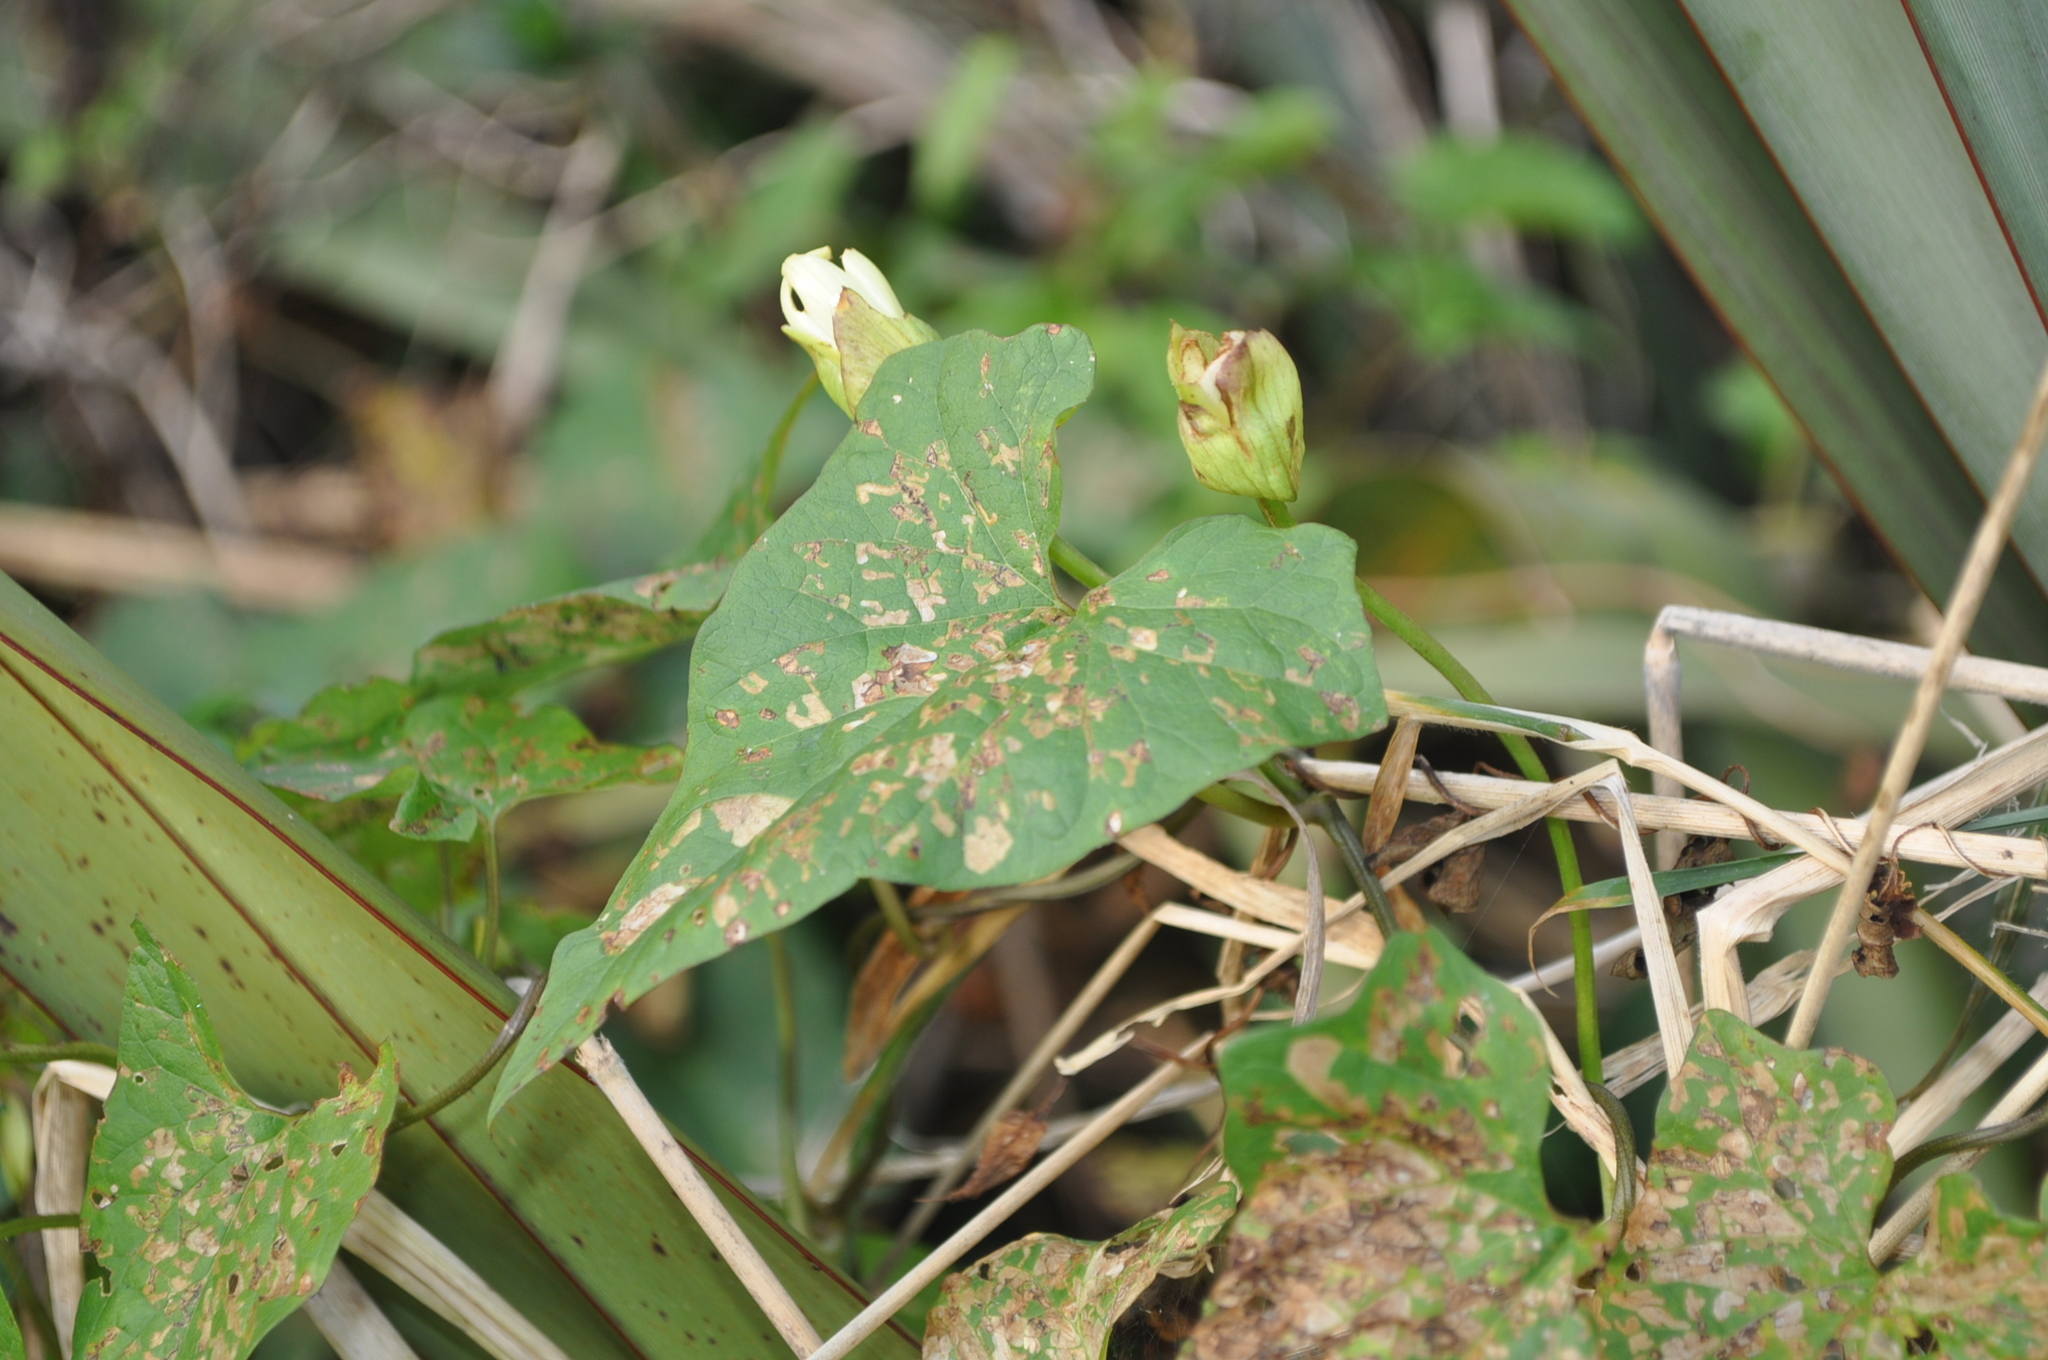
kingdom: Plantae
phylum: Tracheophyta
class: Magnoliopsida
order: Solanales
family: Convolvulaceae
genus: Calystegia
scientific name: Calystegia silvatica
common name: Large bindweed
